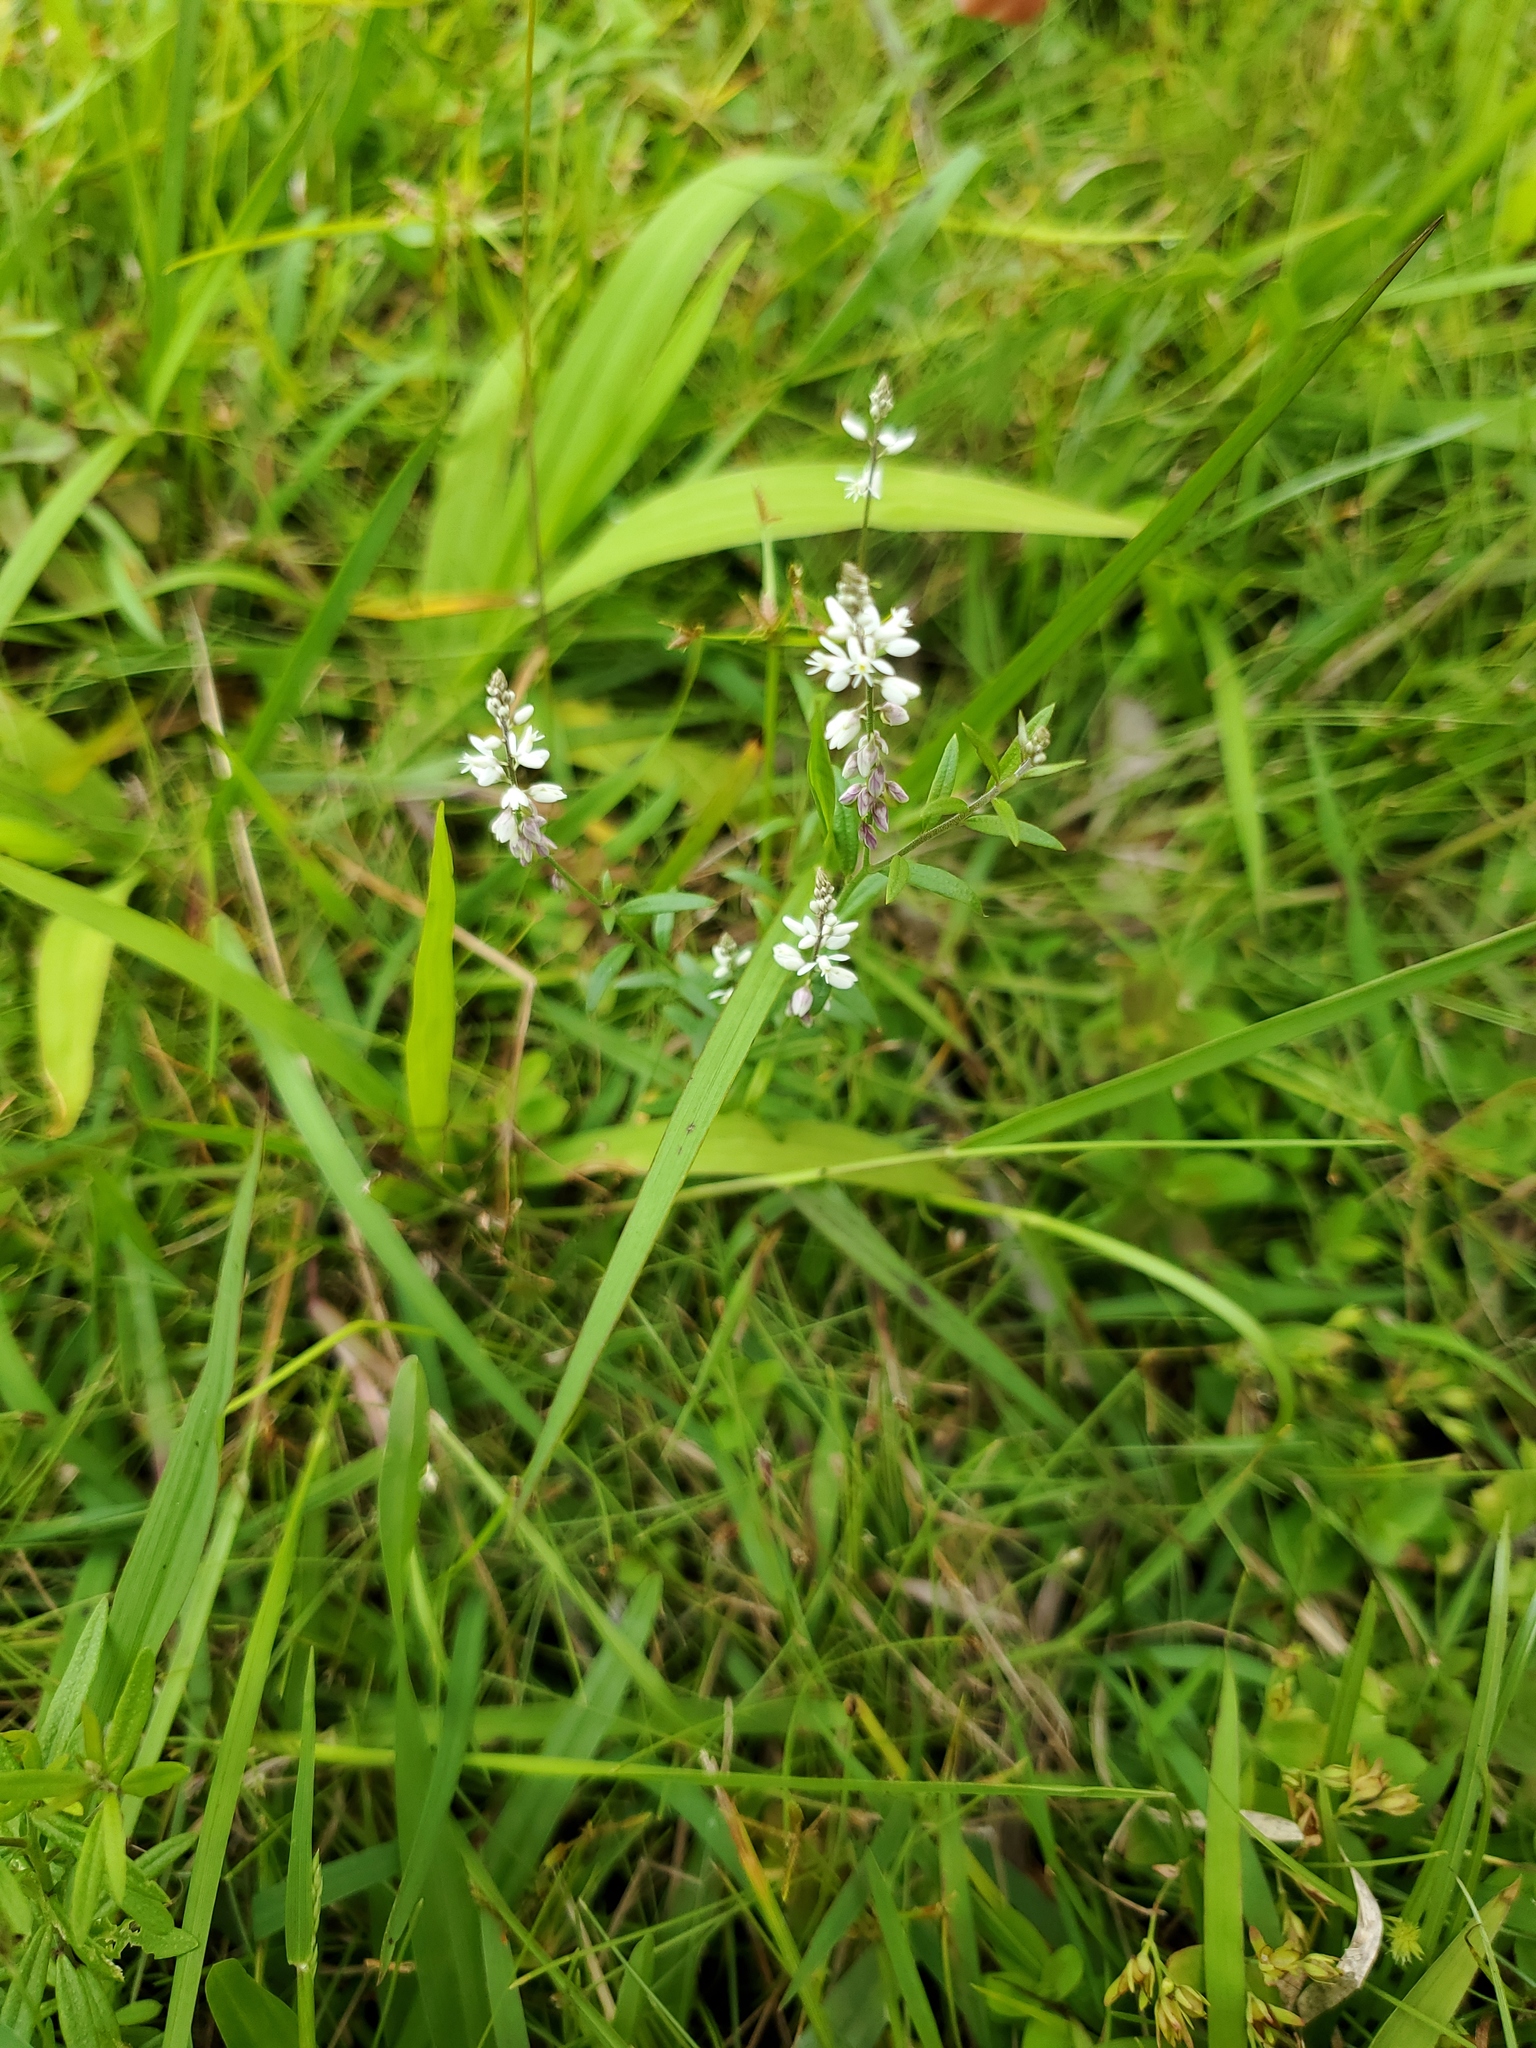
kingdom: Plantae
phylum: Tracheophyta
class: Magnoliopsida
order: Fabales
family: Polygalaceae
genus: Polygala
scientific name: Polygala paniculata
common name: Orosne
